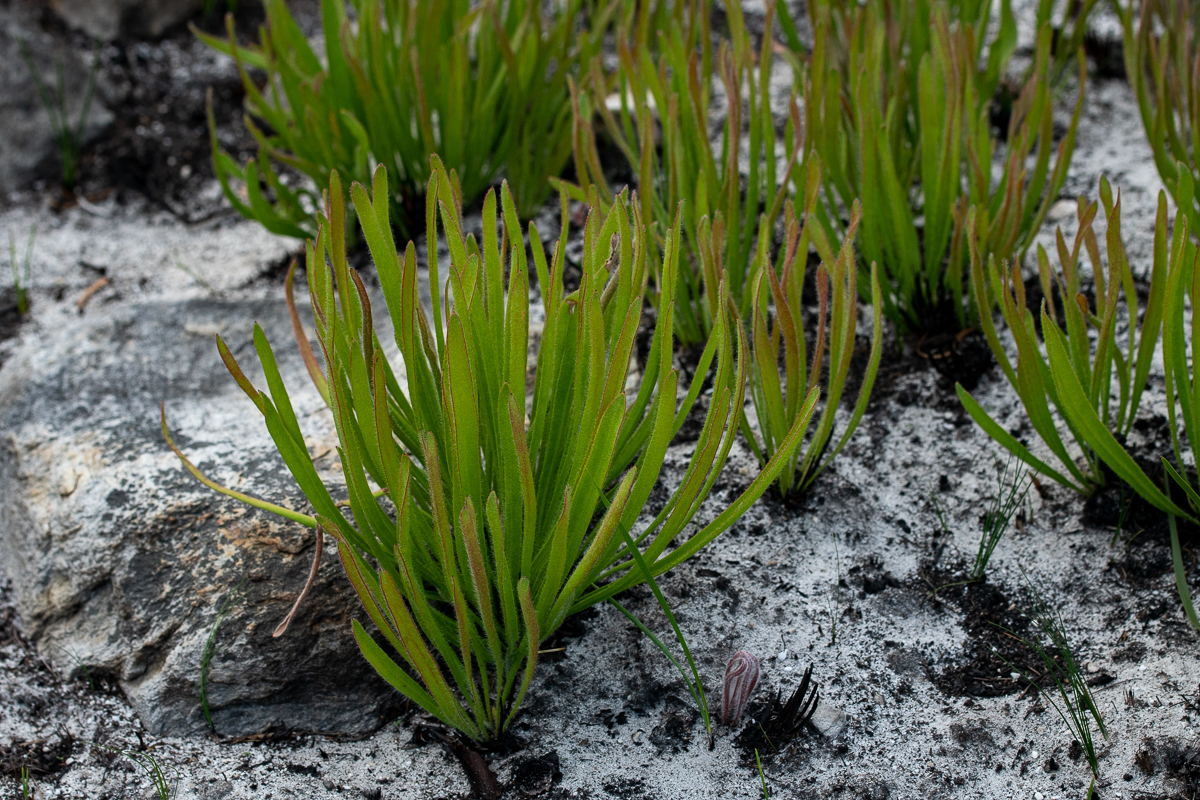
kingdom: Plantae
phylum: Tracheophyta
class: Magnoliopsida
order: Proteales
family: Proteaceae
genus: Protea
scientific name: Protea scabra
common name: Sandpaper-leaf sugarbush
